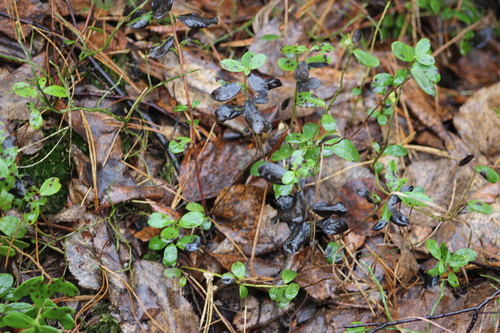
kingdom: Fungi
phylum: Ascomycota
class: Leotiomycetes
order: Rhytismatales
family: Rhytismataceae
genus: Rhytisma
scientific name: Rhytisma andromedae
